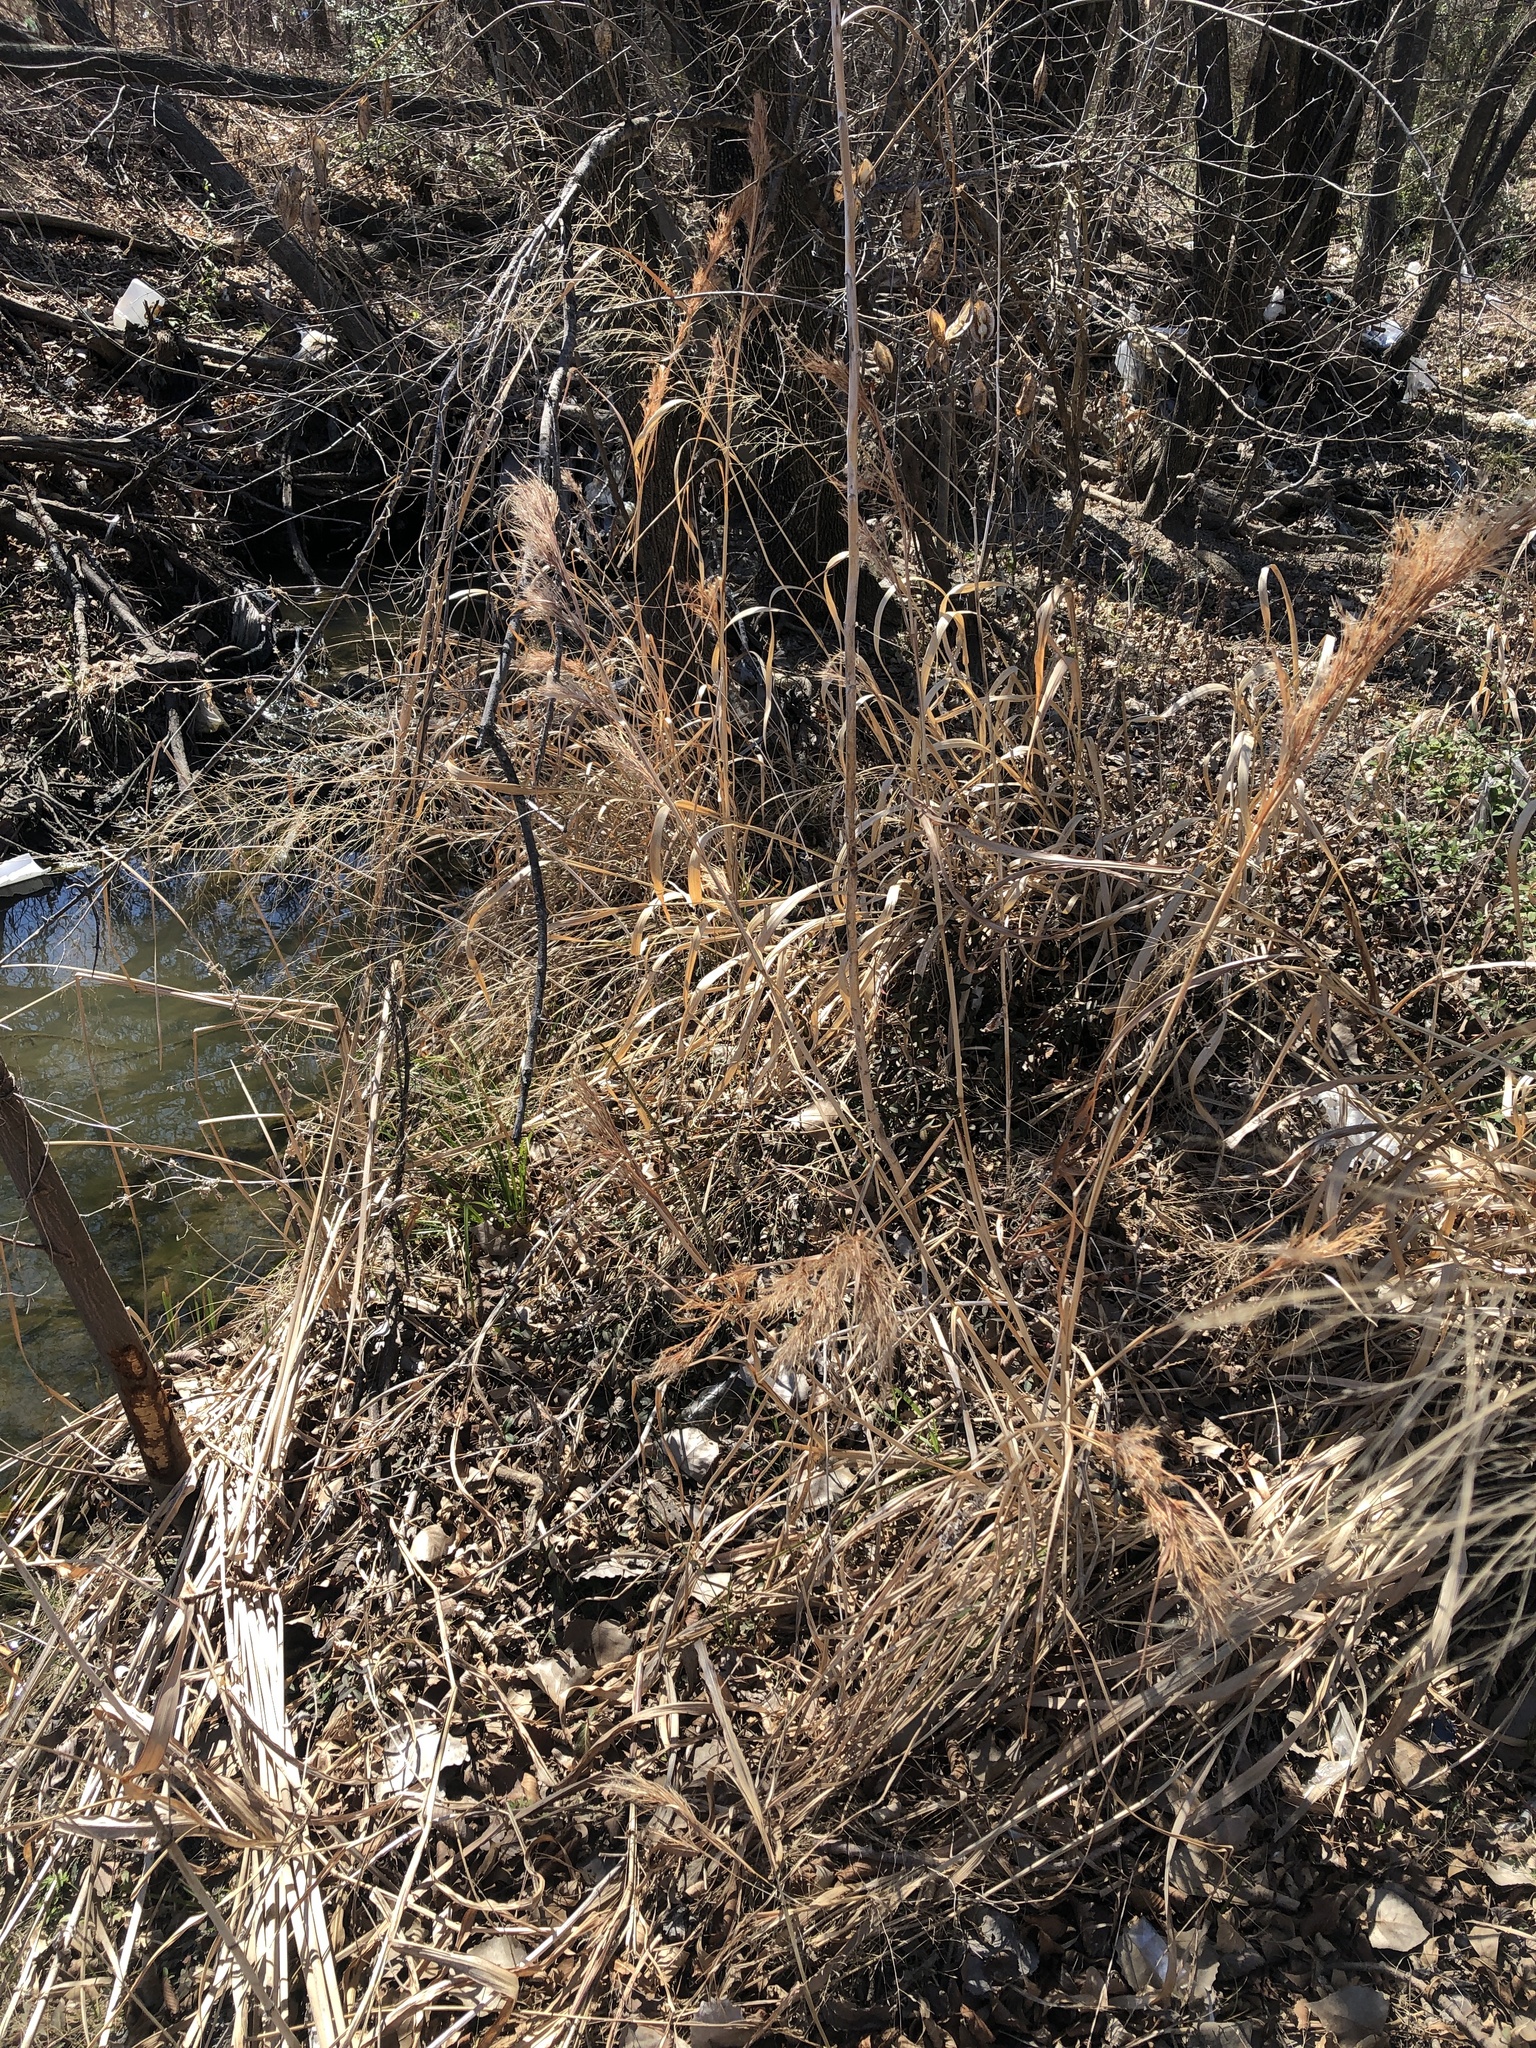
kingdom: Plantae
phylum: Tracheophyta
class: Liliopsida
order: Poales
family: Poaceae
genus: Andropogon
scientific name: Andropogon tenuispatheus
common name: Bushy bluestem
